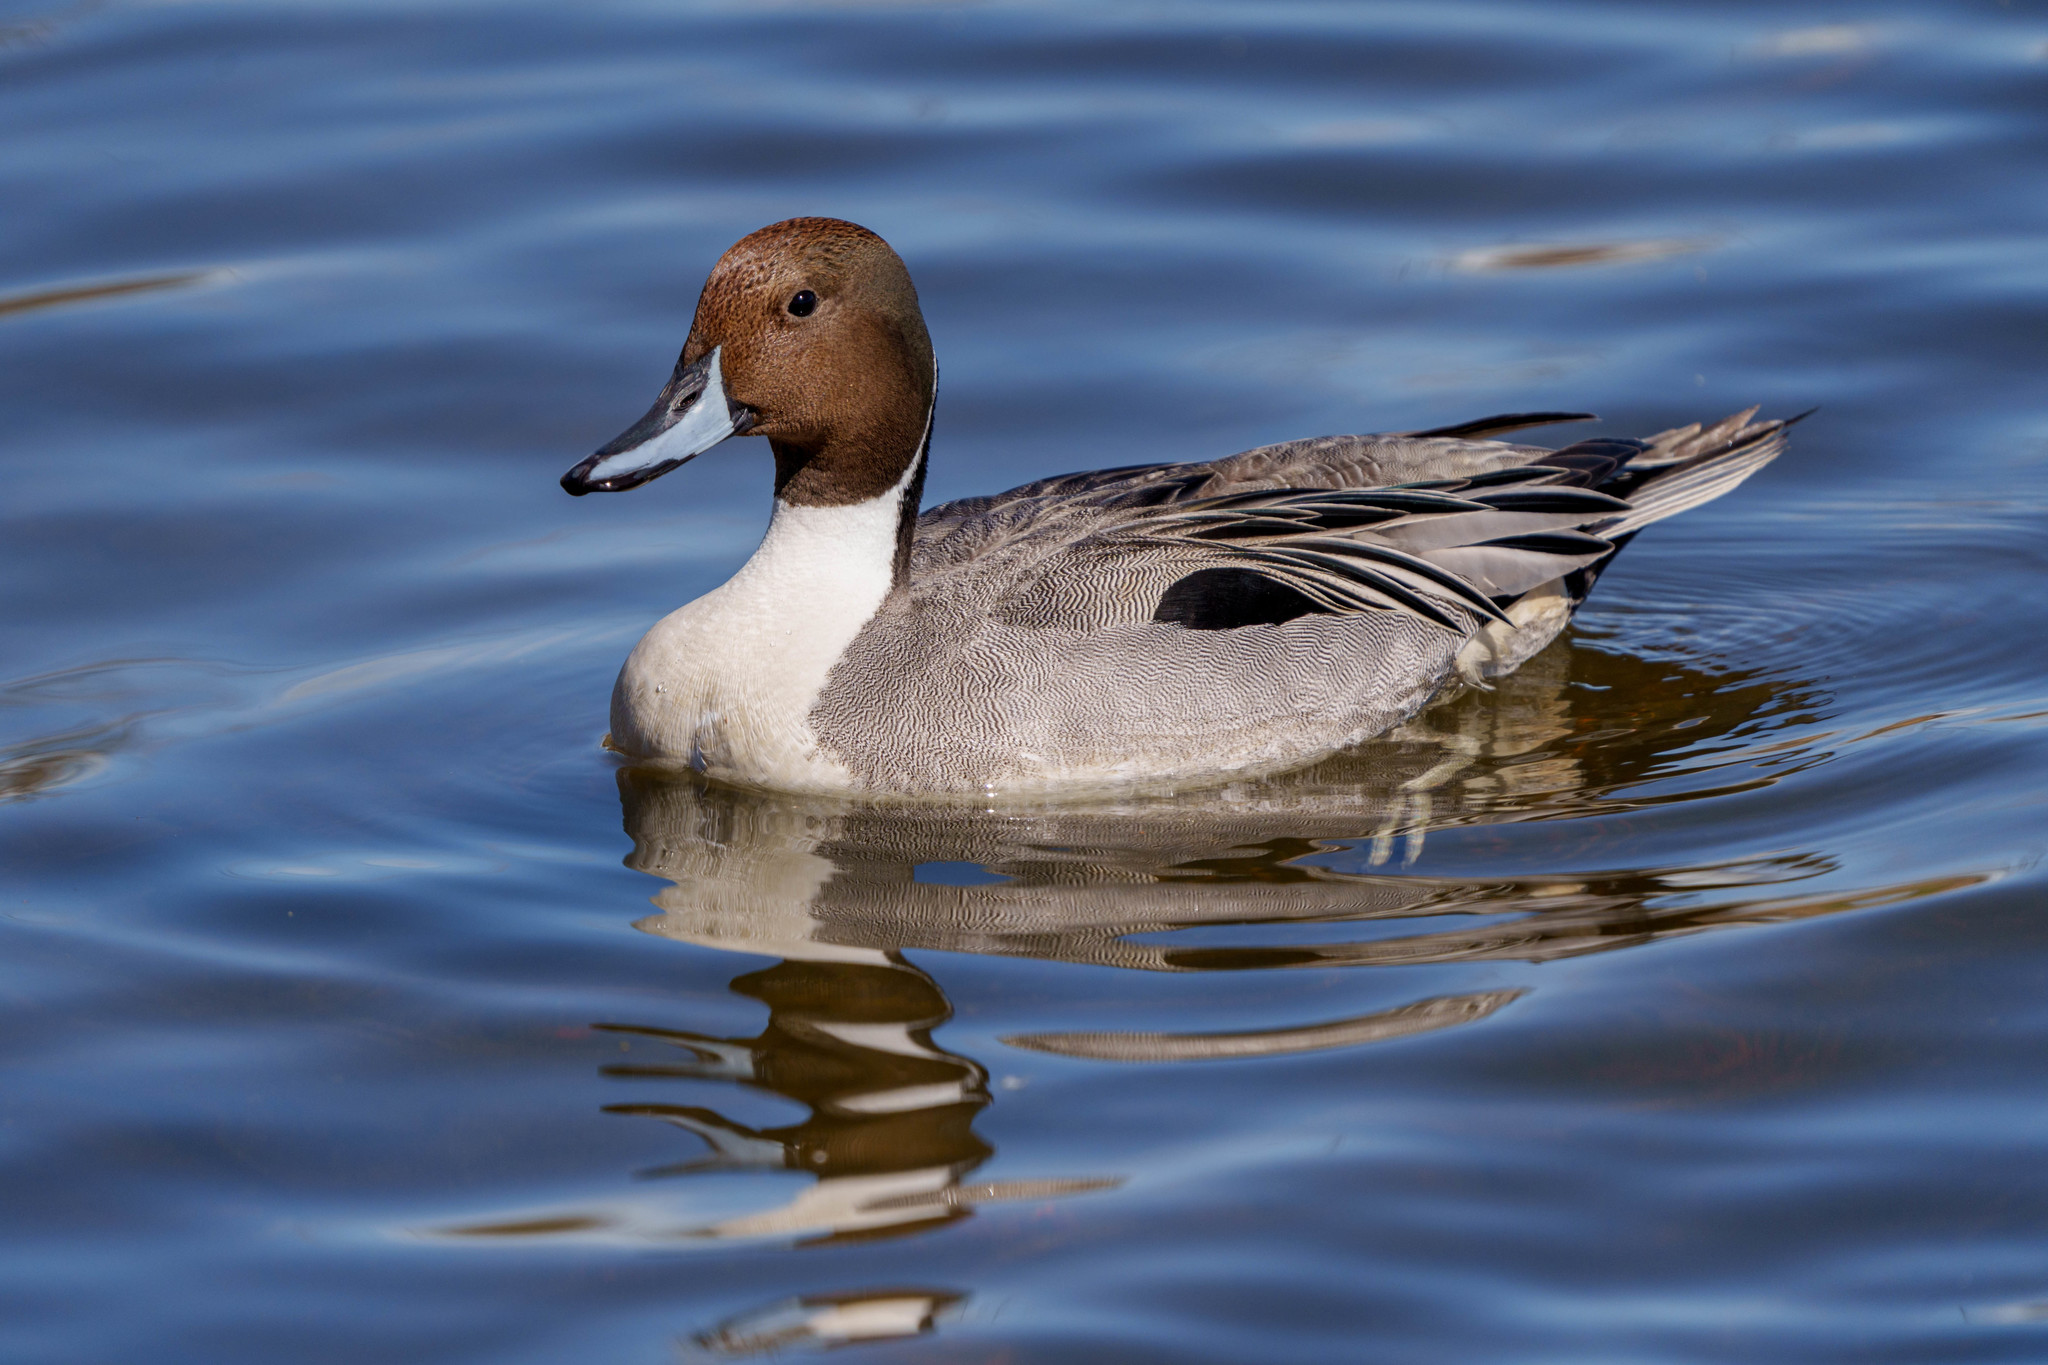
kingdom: Animalia
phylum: Chordata
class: Aves
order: Anseriformes
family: Anatidae
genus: Anas
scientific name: Anas acuta
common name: Northern pintail
